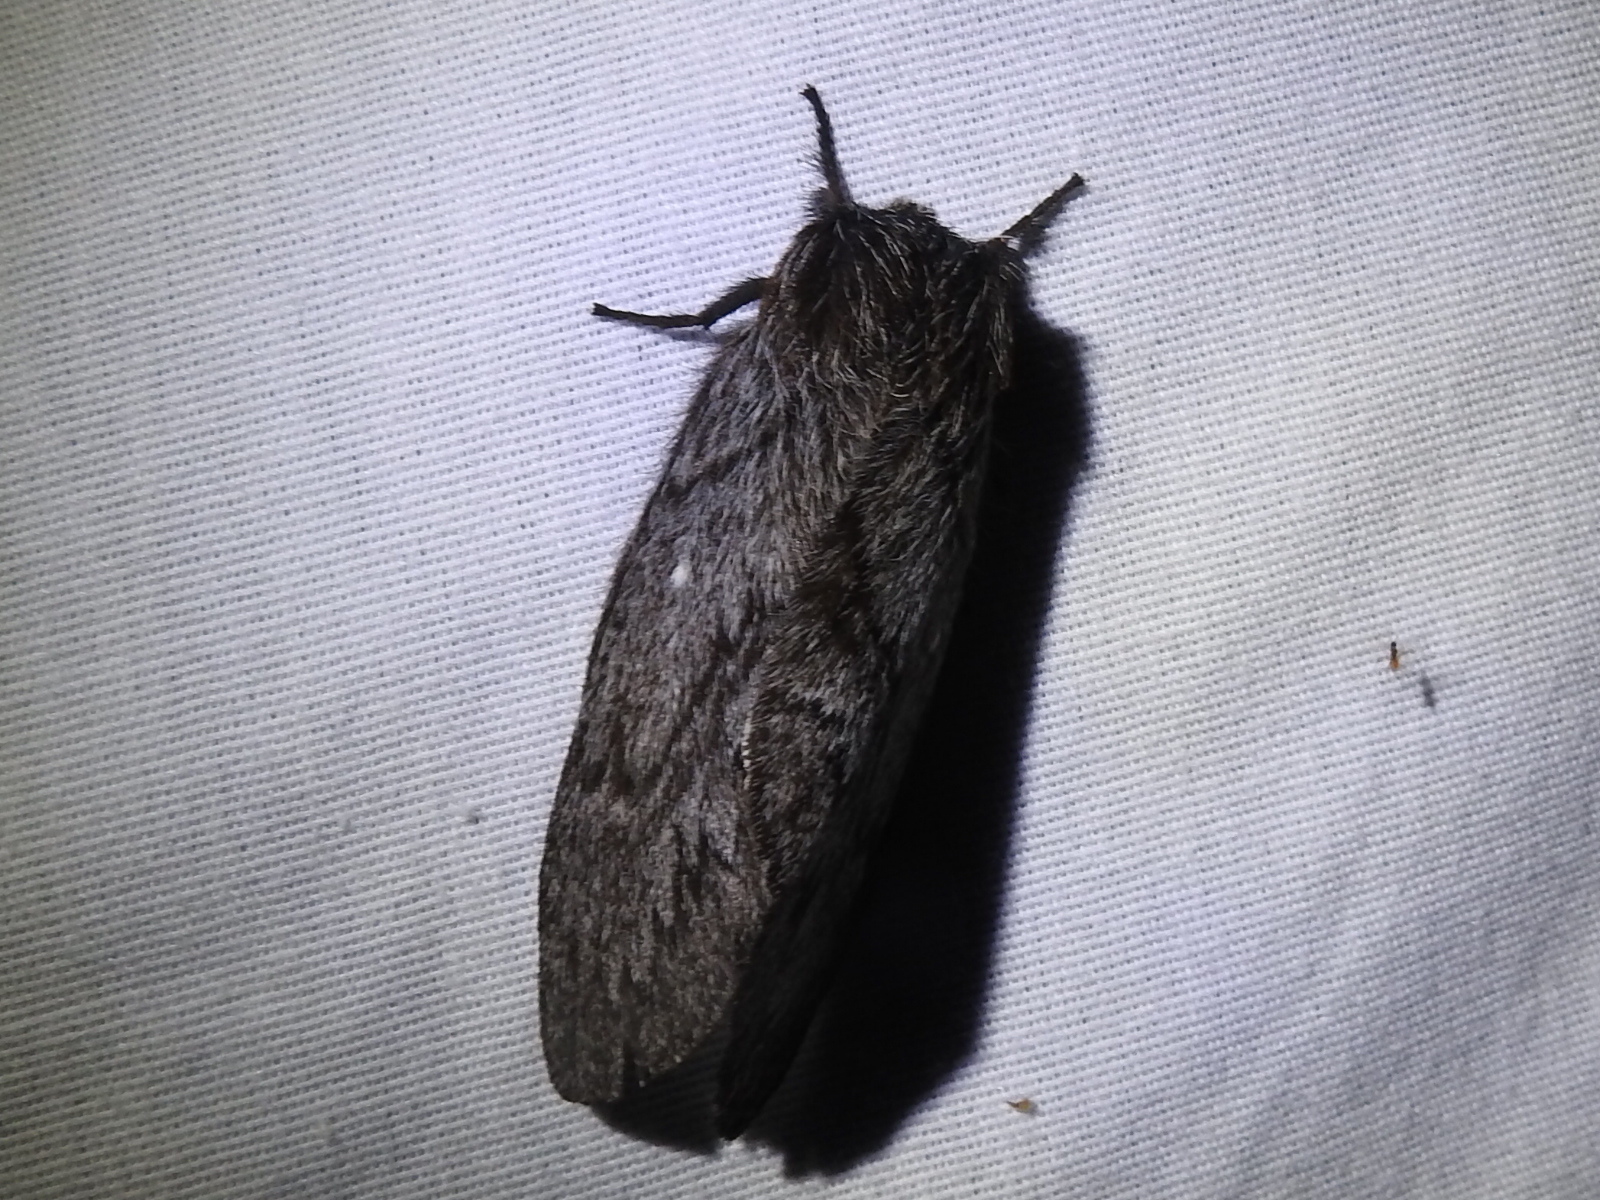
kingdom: Animalia
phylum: Arthropoda
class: Insecta
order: Lepidoptera
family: Lasiocampidae
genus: Gloveria
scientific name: Gloveria arizonensis
